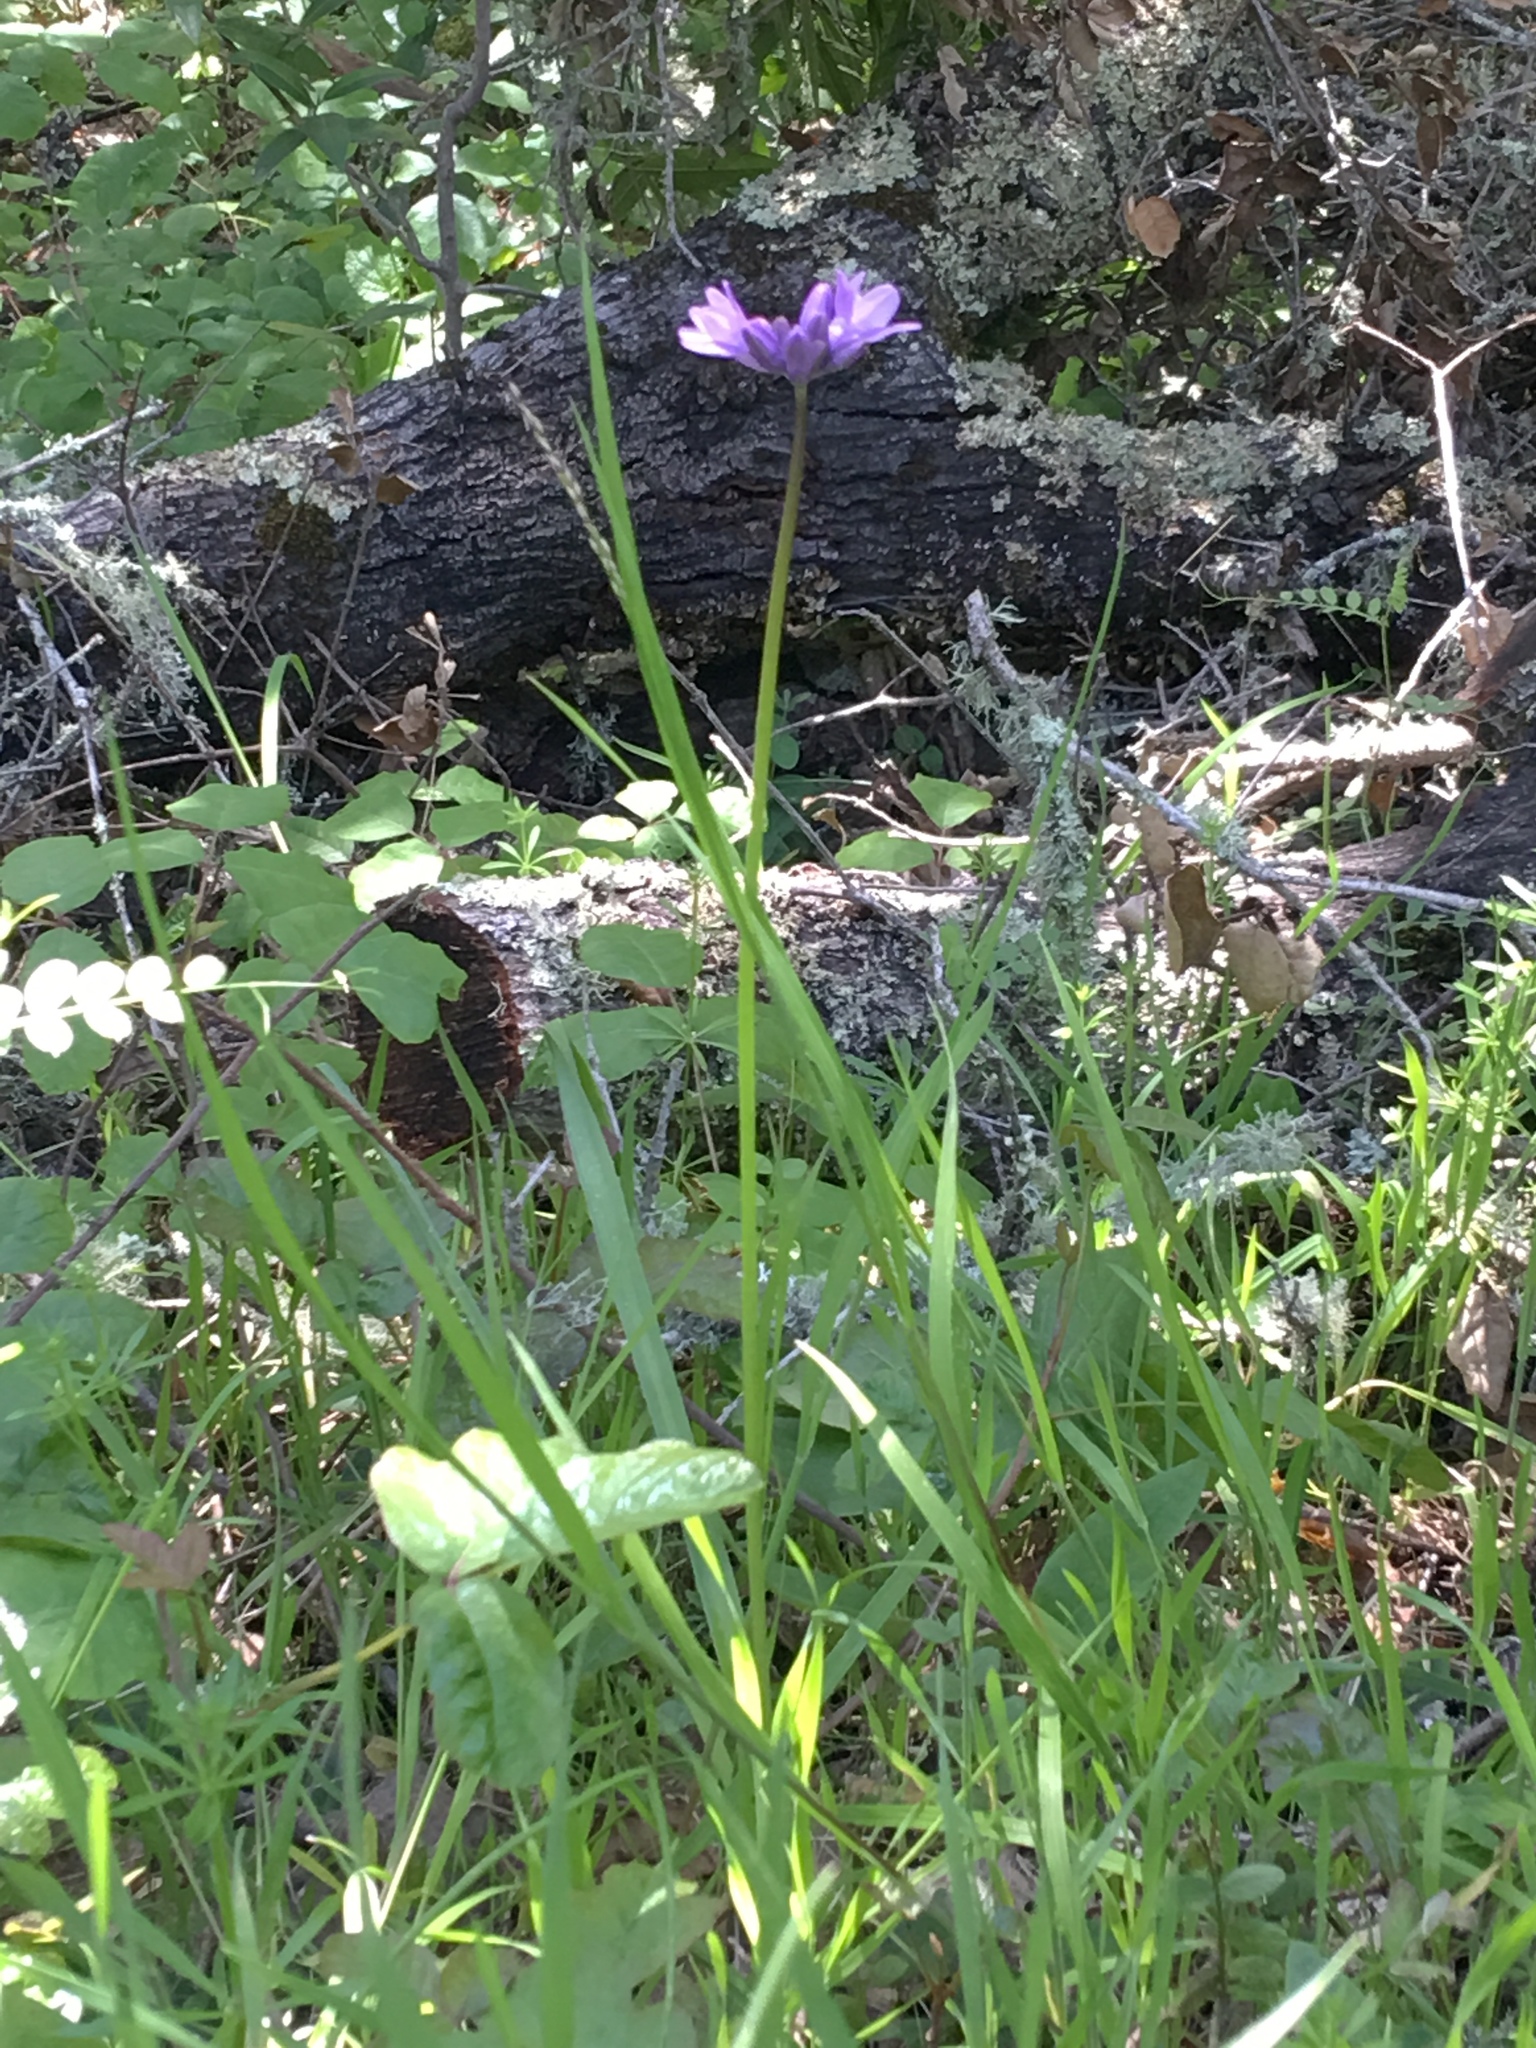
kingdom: Plantae
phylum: Tracheophyta
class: Liliopsida
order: Asparagales
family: Asparagaceae
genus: Dipterostemon
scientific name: Dipterostemon capitatus
